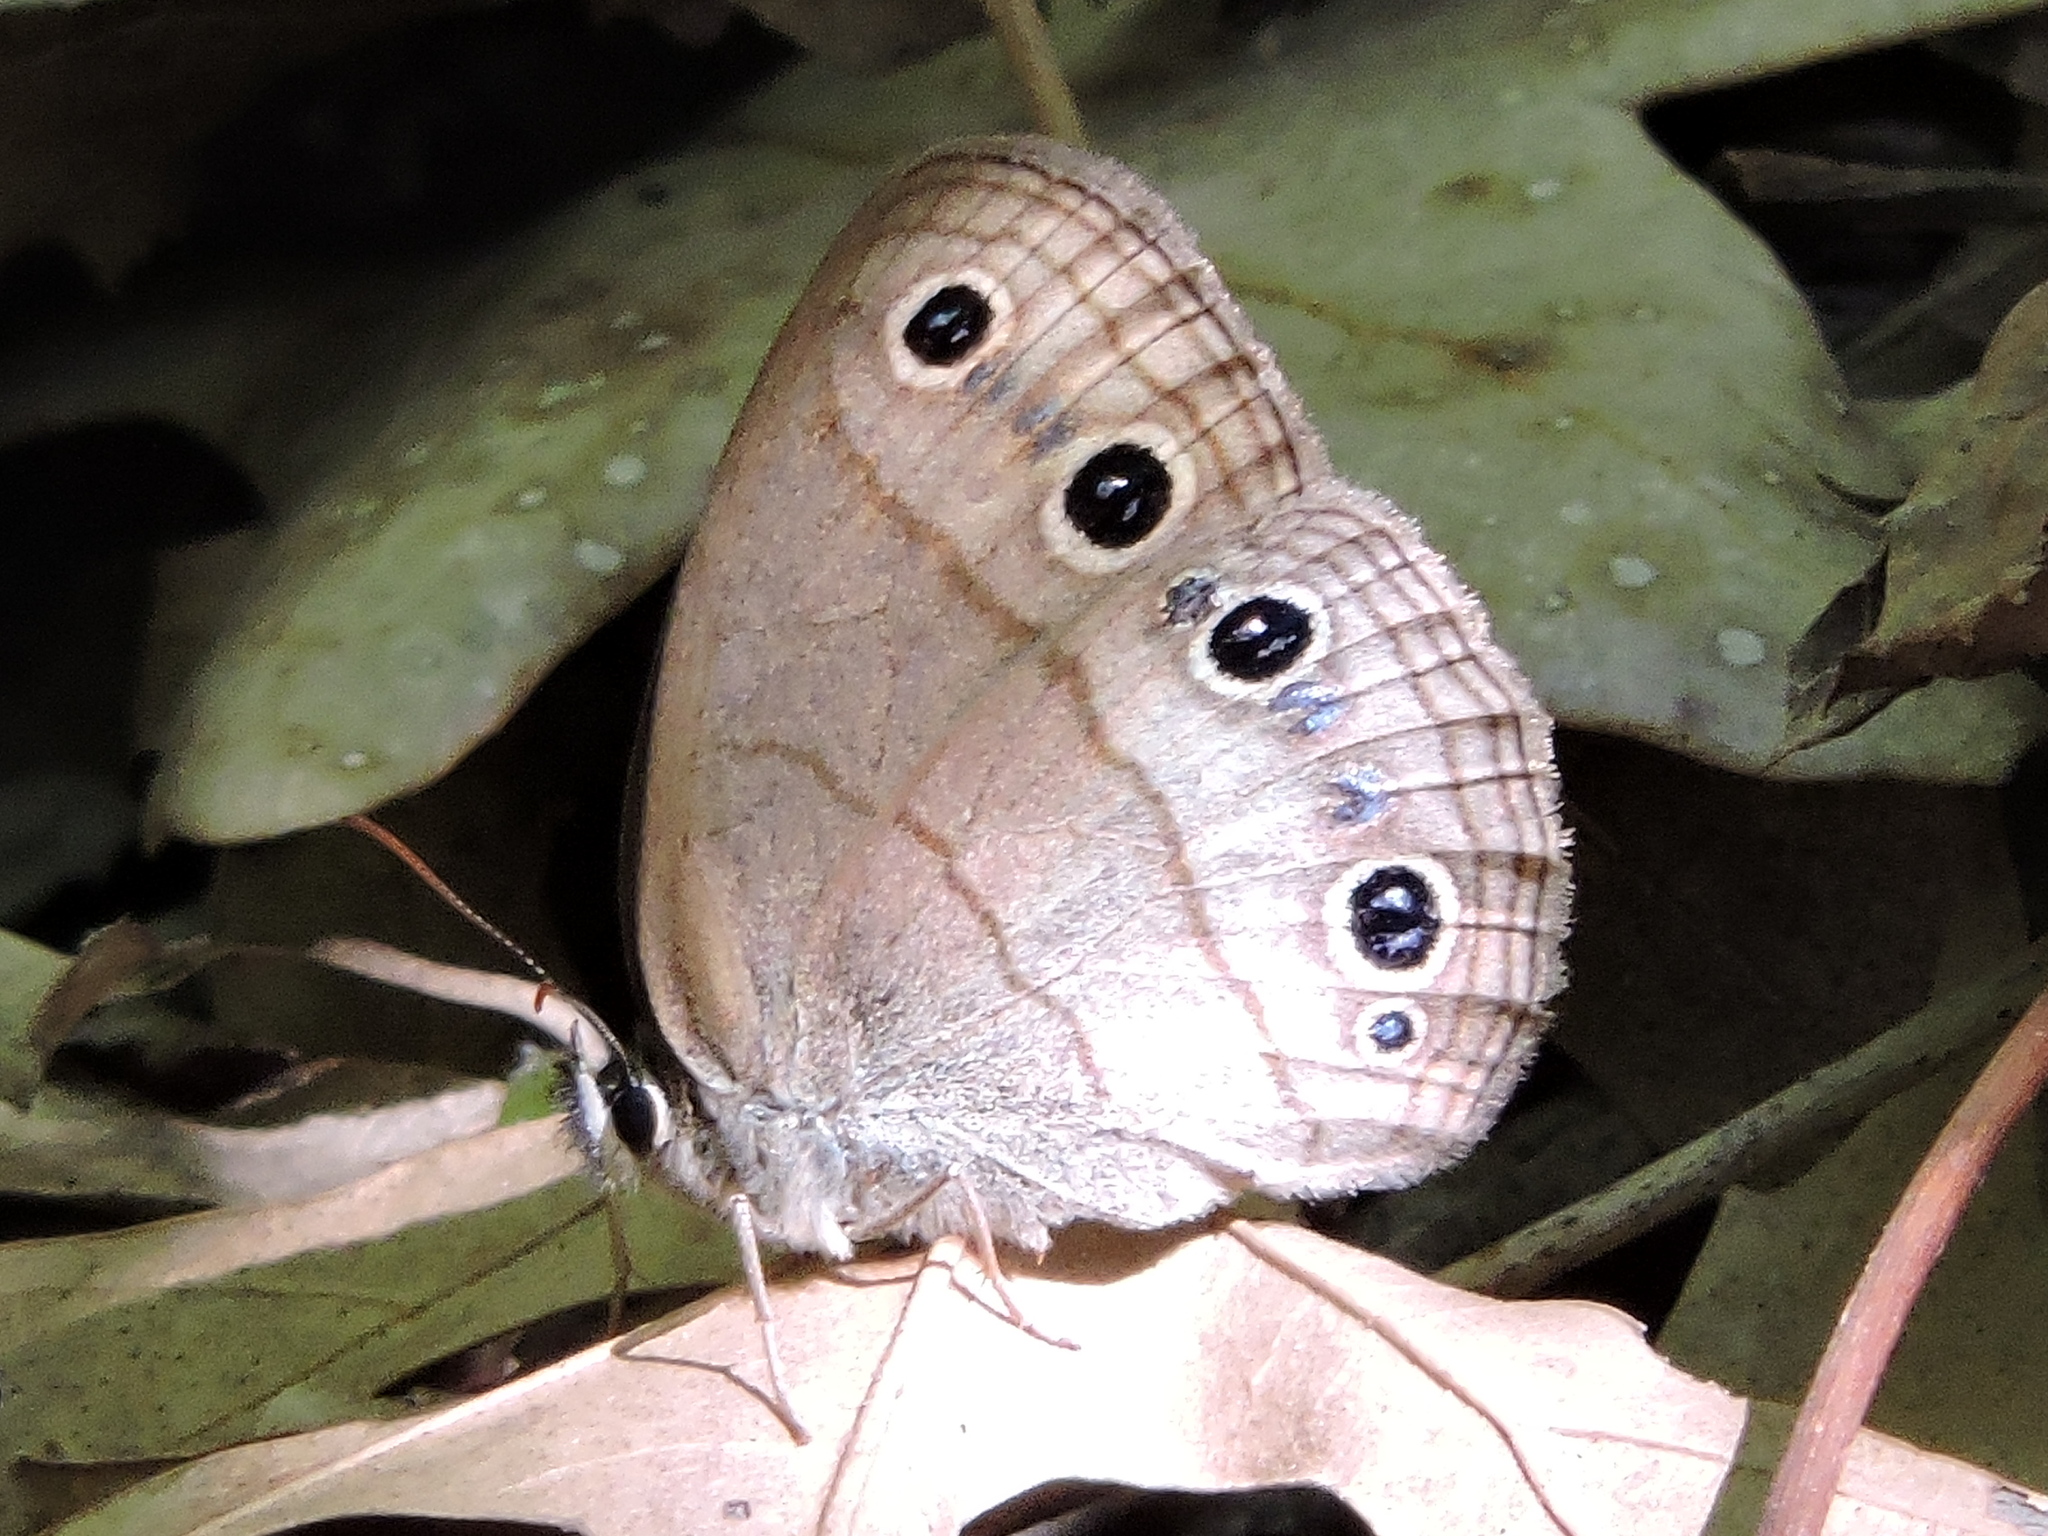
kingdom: Animalia
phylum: Arthropoda
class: Insecta
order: Lepidoptera
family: Nymphalidae
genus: Euptychia
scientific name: Euptychia cymela
